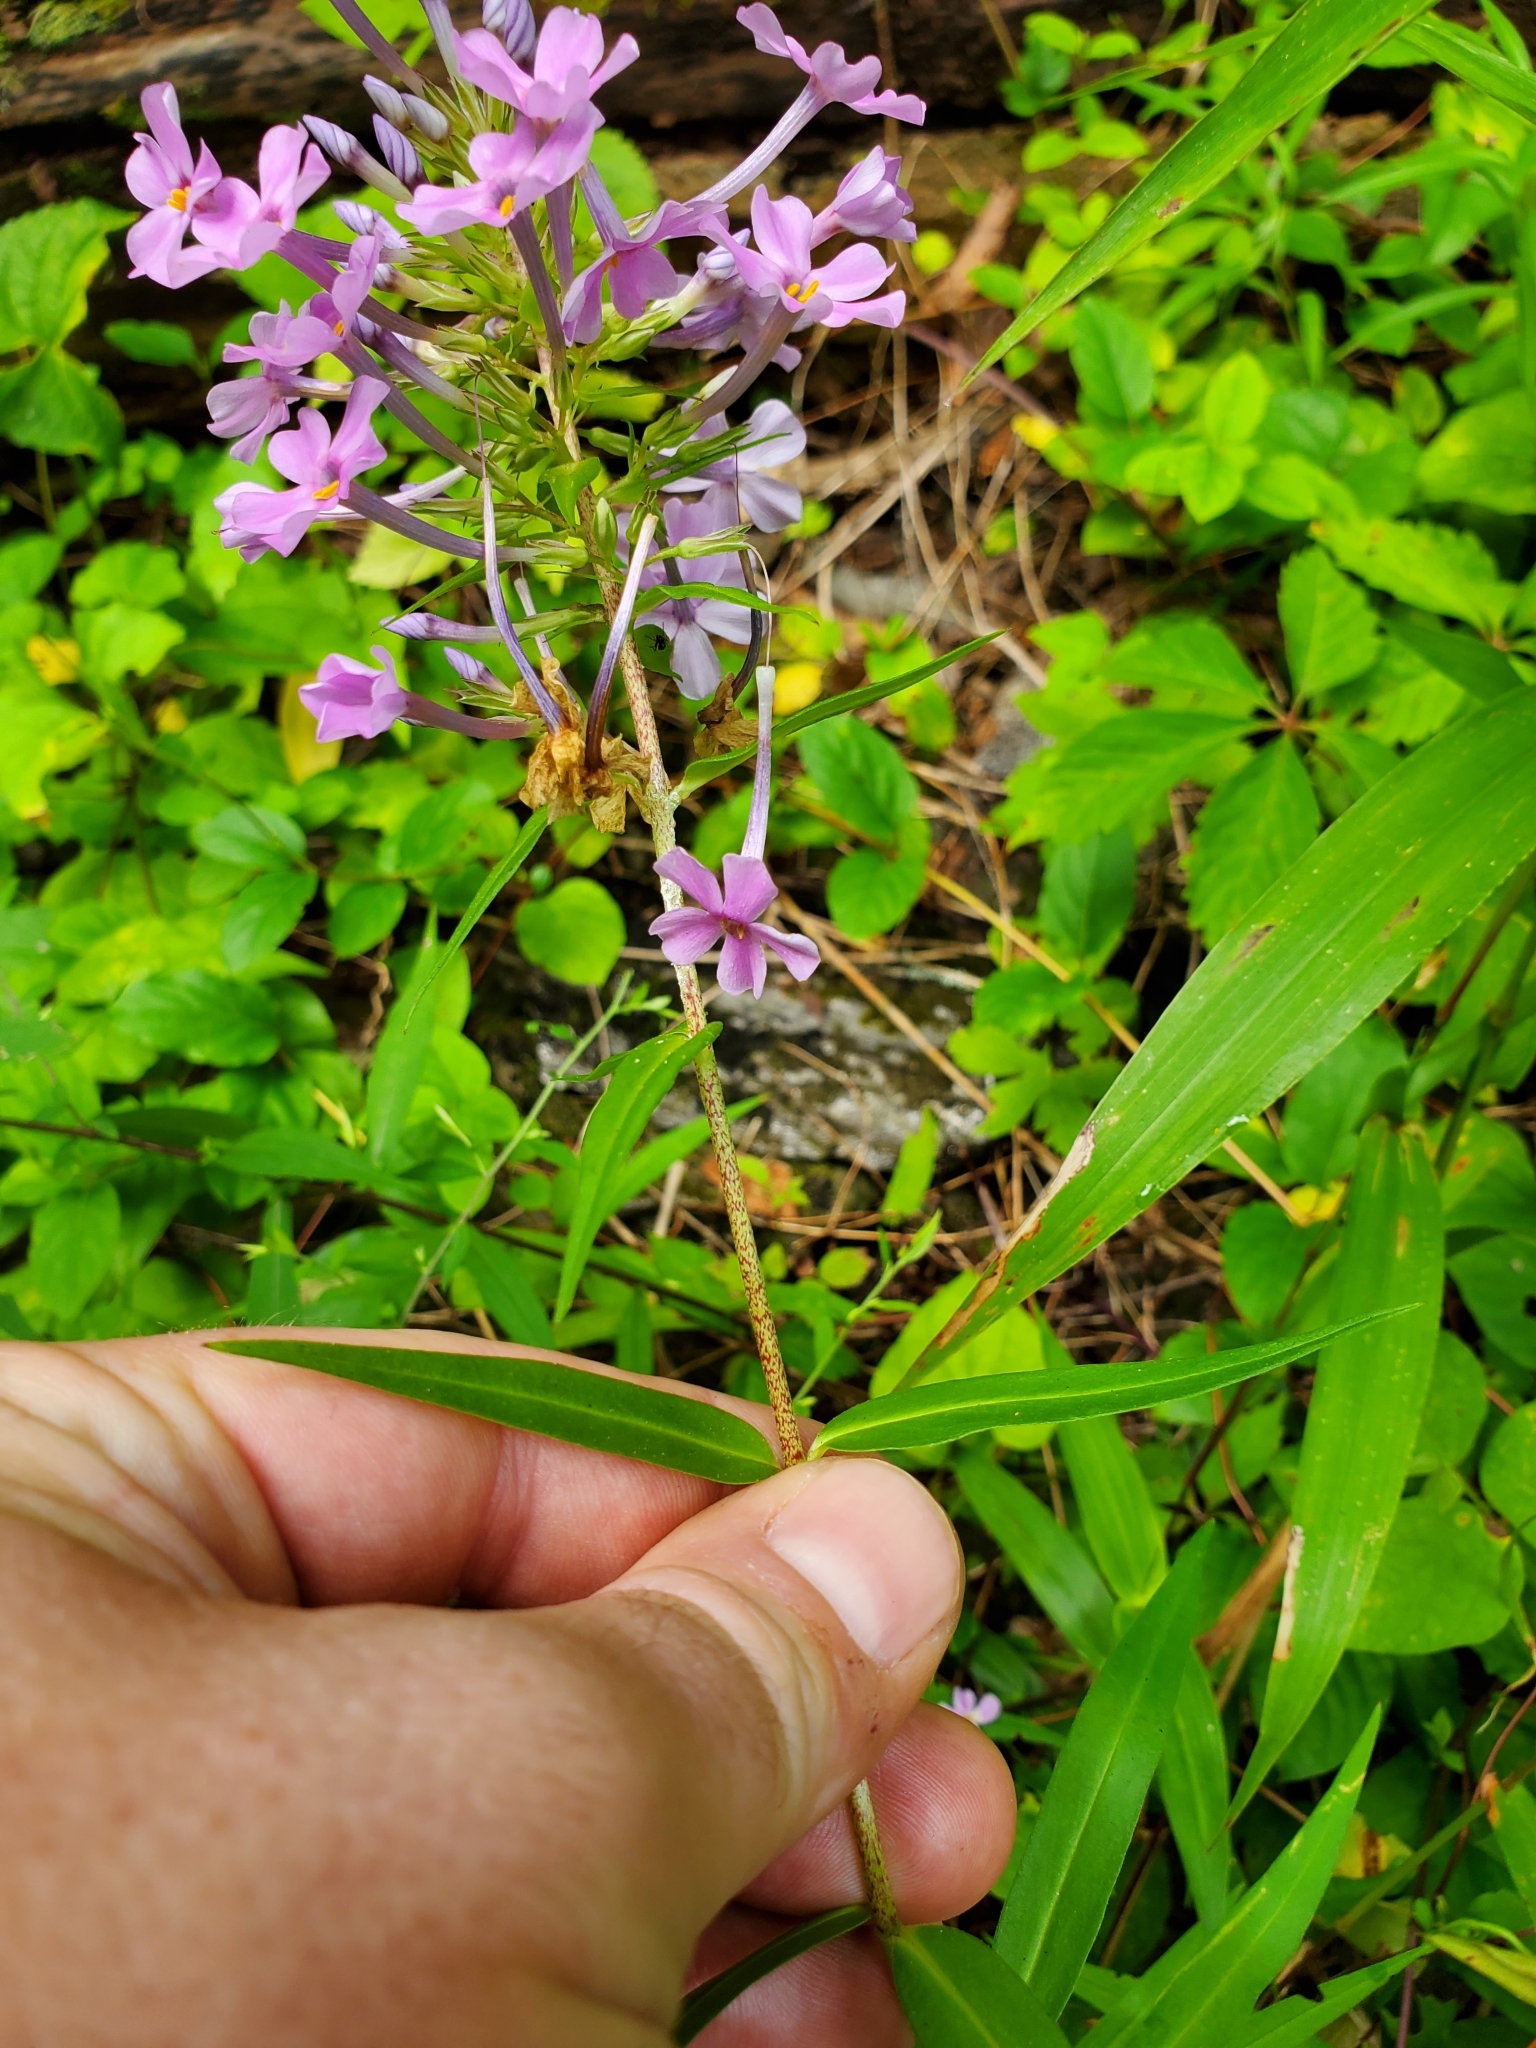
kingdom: Plantae
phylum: Tracheophyta
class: Magnoliopsida
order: Ericales
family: Polemoniaceae
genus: Phlox
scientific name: Phlox maculata
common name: Meadow phlox
